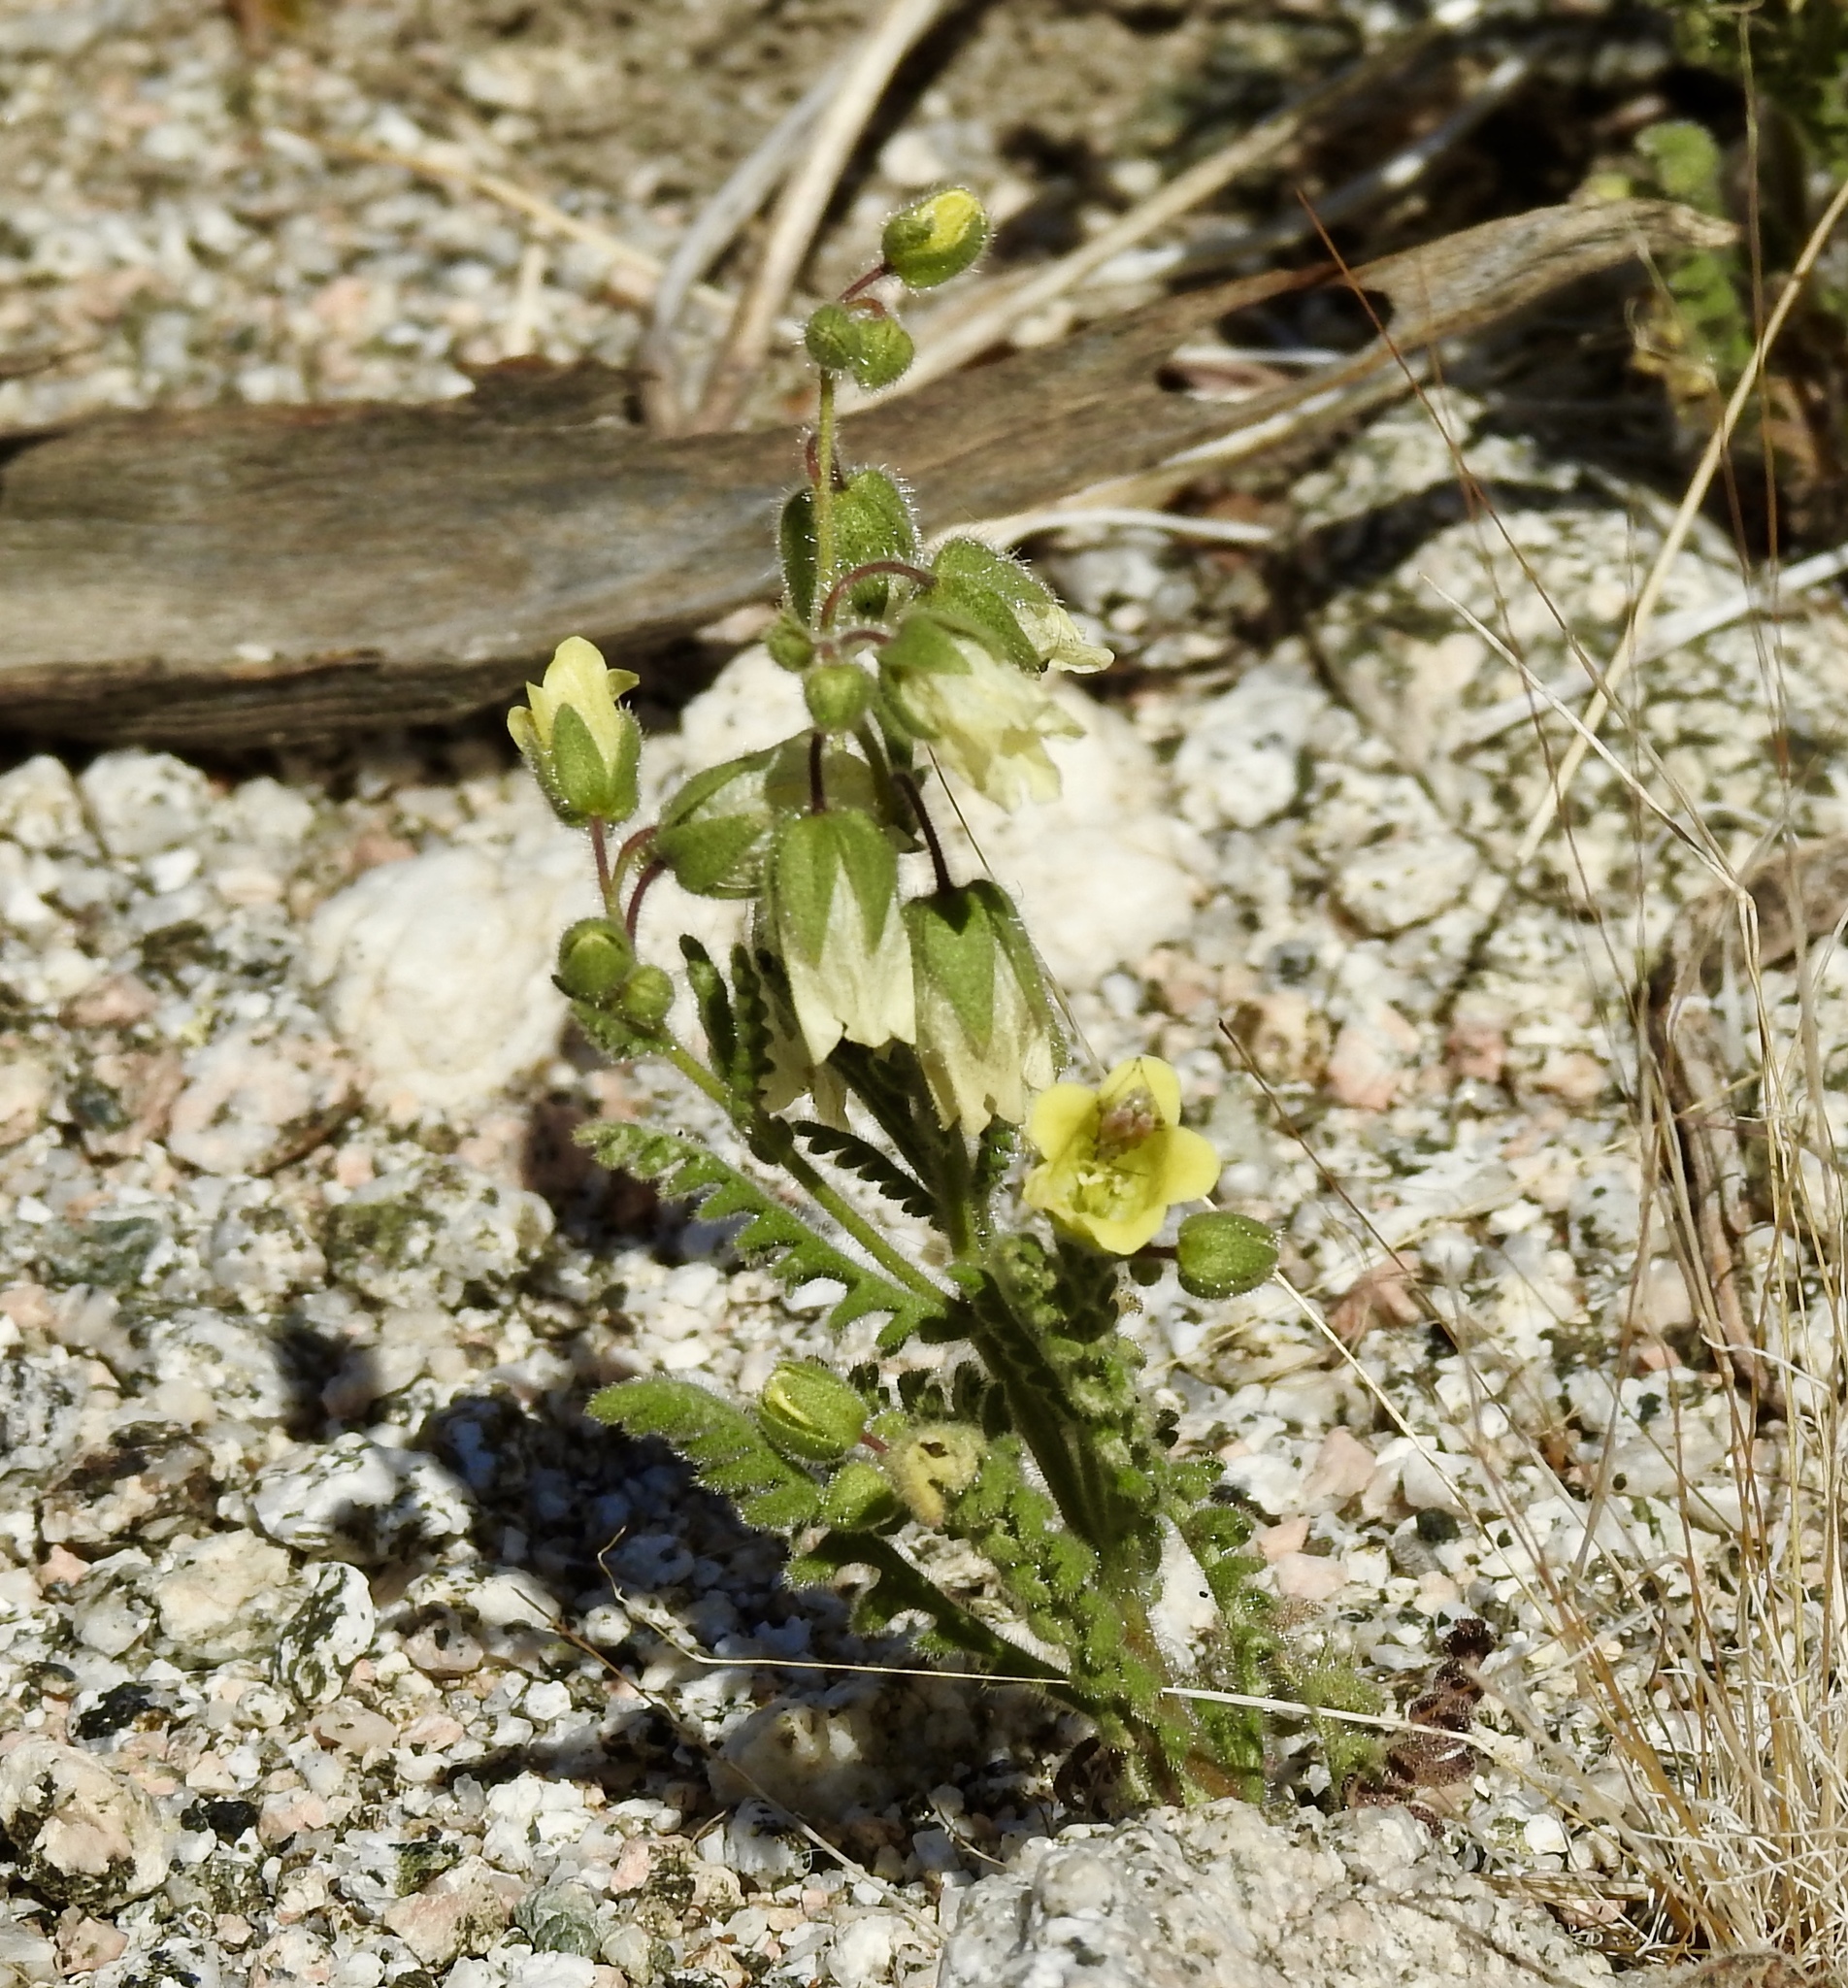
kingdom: Plantae
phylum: Tracheophyta
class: Magnoliopsida
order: Boraginales
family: Hydrophyllaceae
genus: Emmenanthe
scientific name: Emmenanthe penduliflora
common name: Whispering-bells
